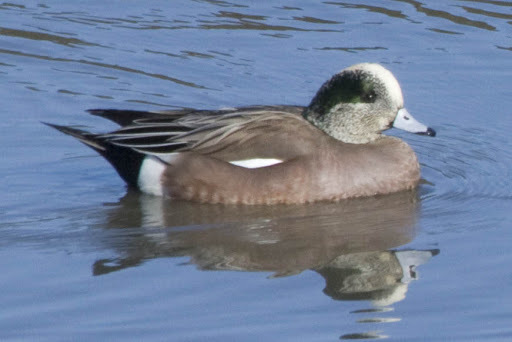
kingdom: Animalia
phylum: Chordata
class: Aves
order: Anseriformes
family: Anatidae
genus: Mareca
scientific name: Mareca americana
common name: American wigeon
